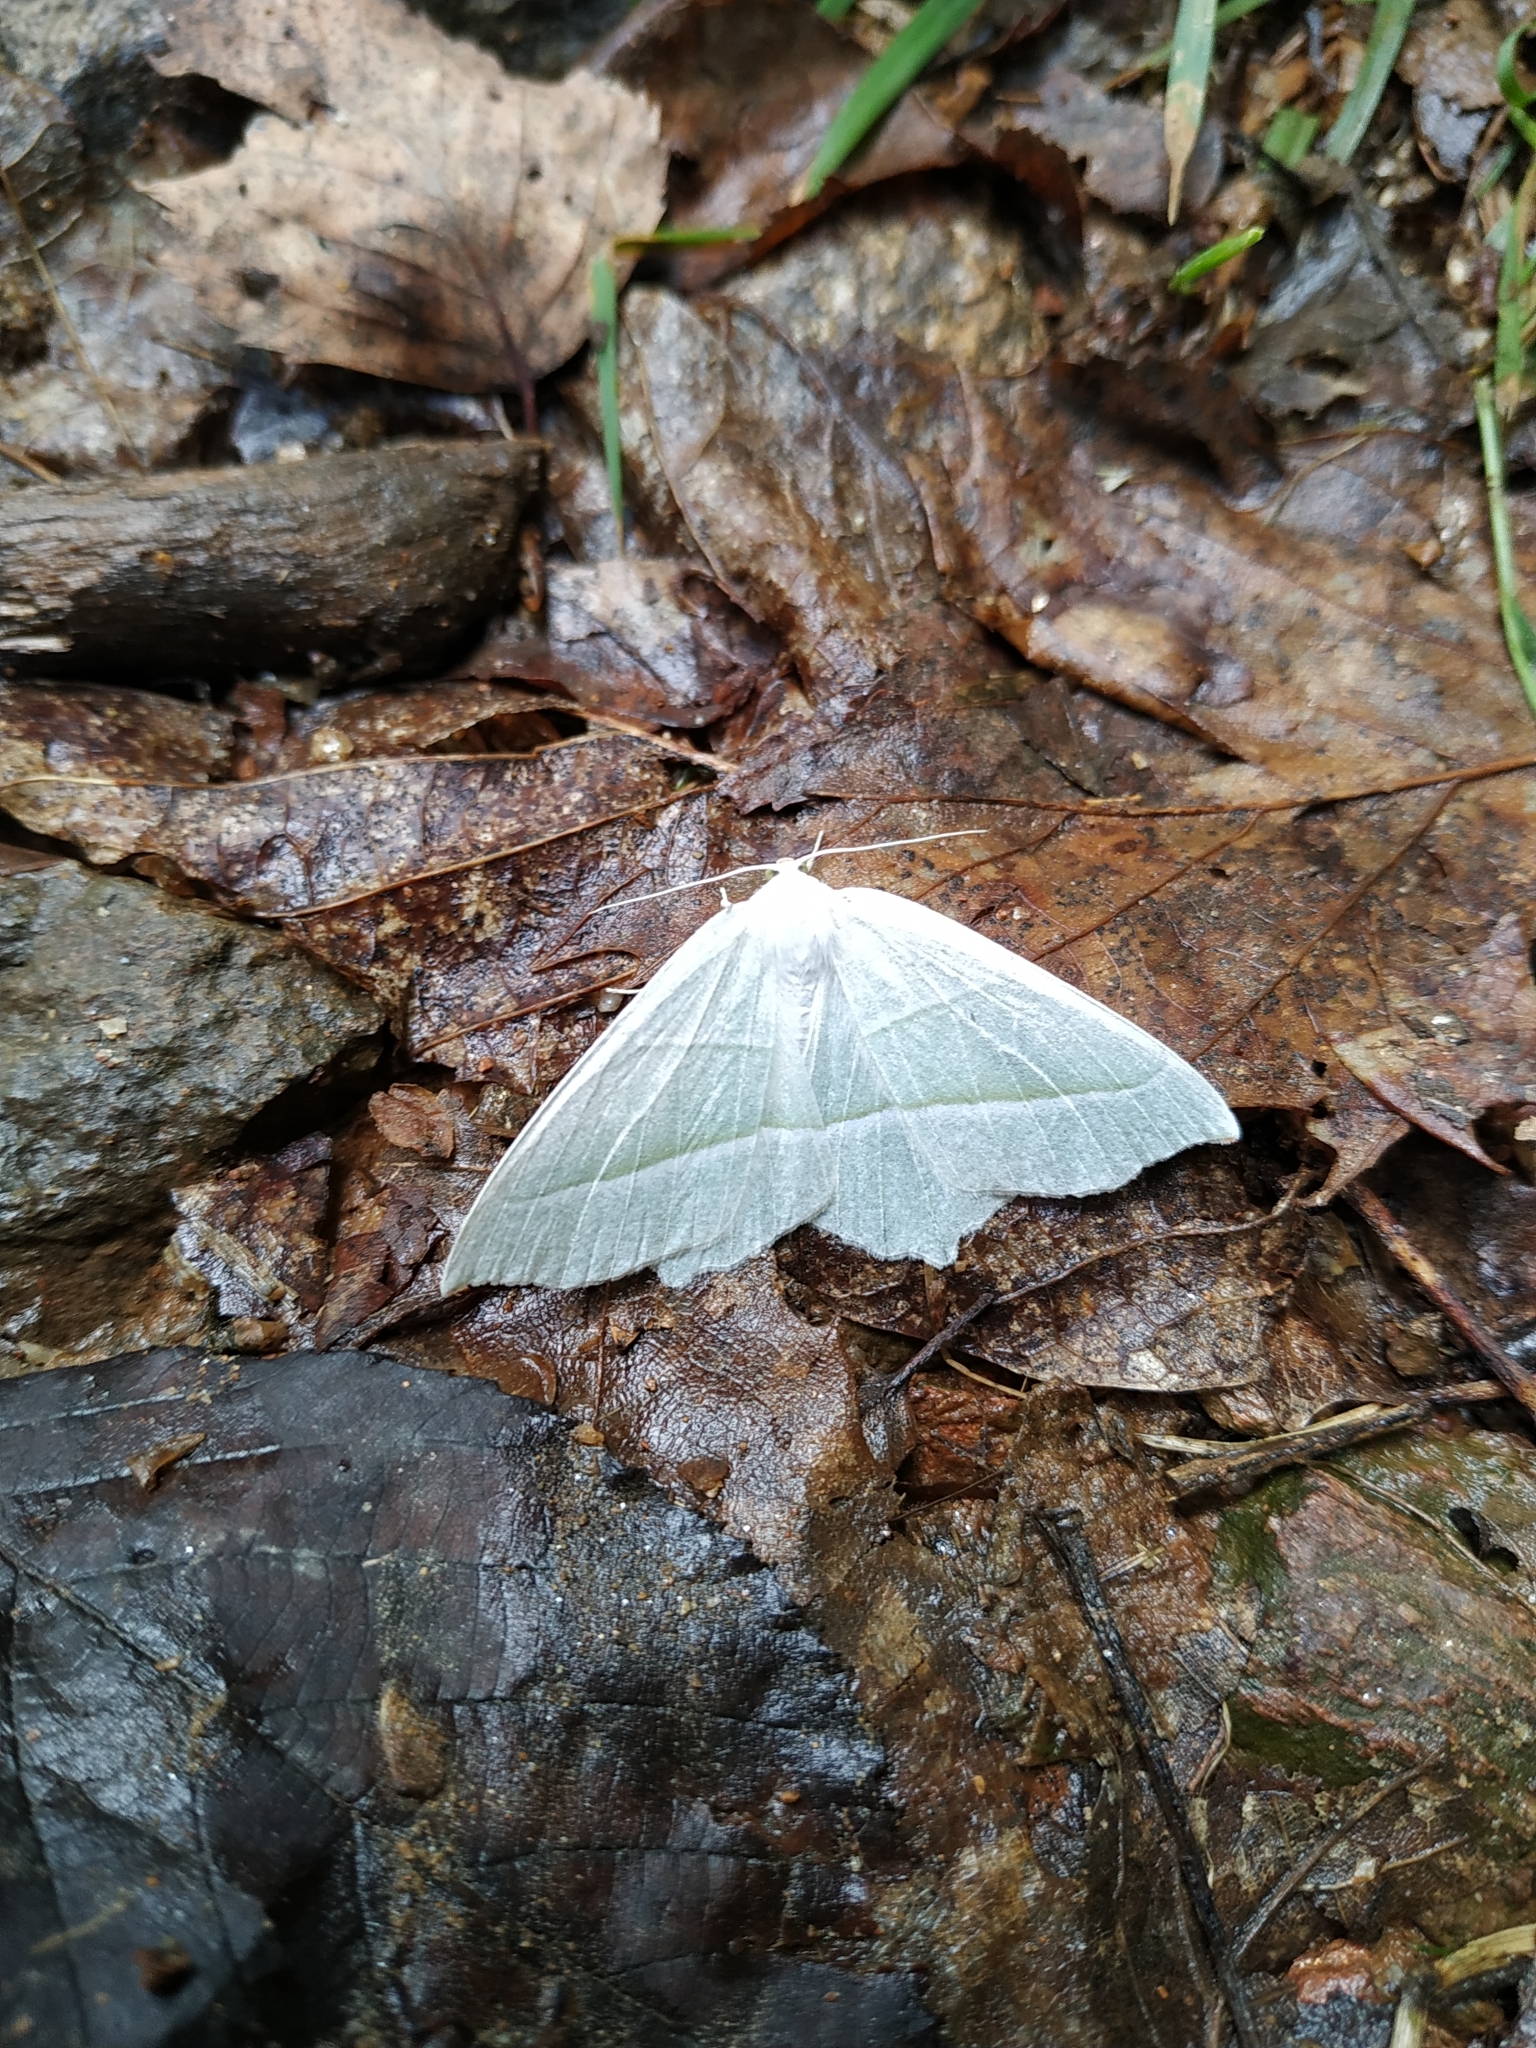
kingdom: Animalia
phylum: Arthropoda
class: Insecta
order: Lepidoptera
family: Geometridae
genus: Campaea
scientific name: Campaea margaritaria
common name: Light emerald
